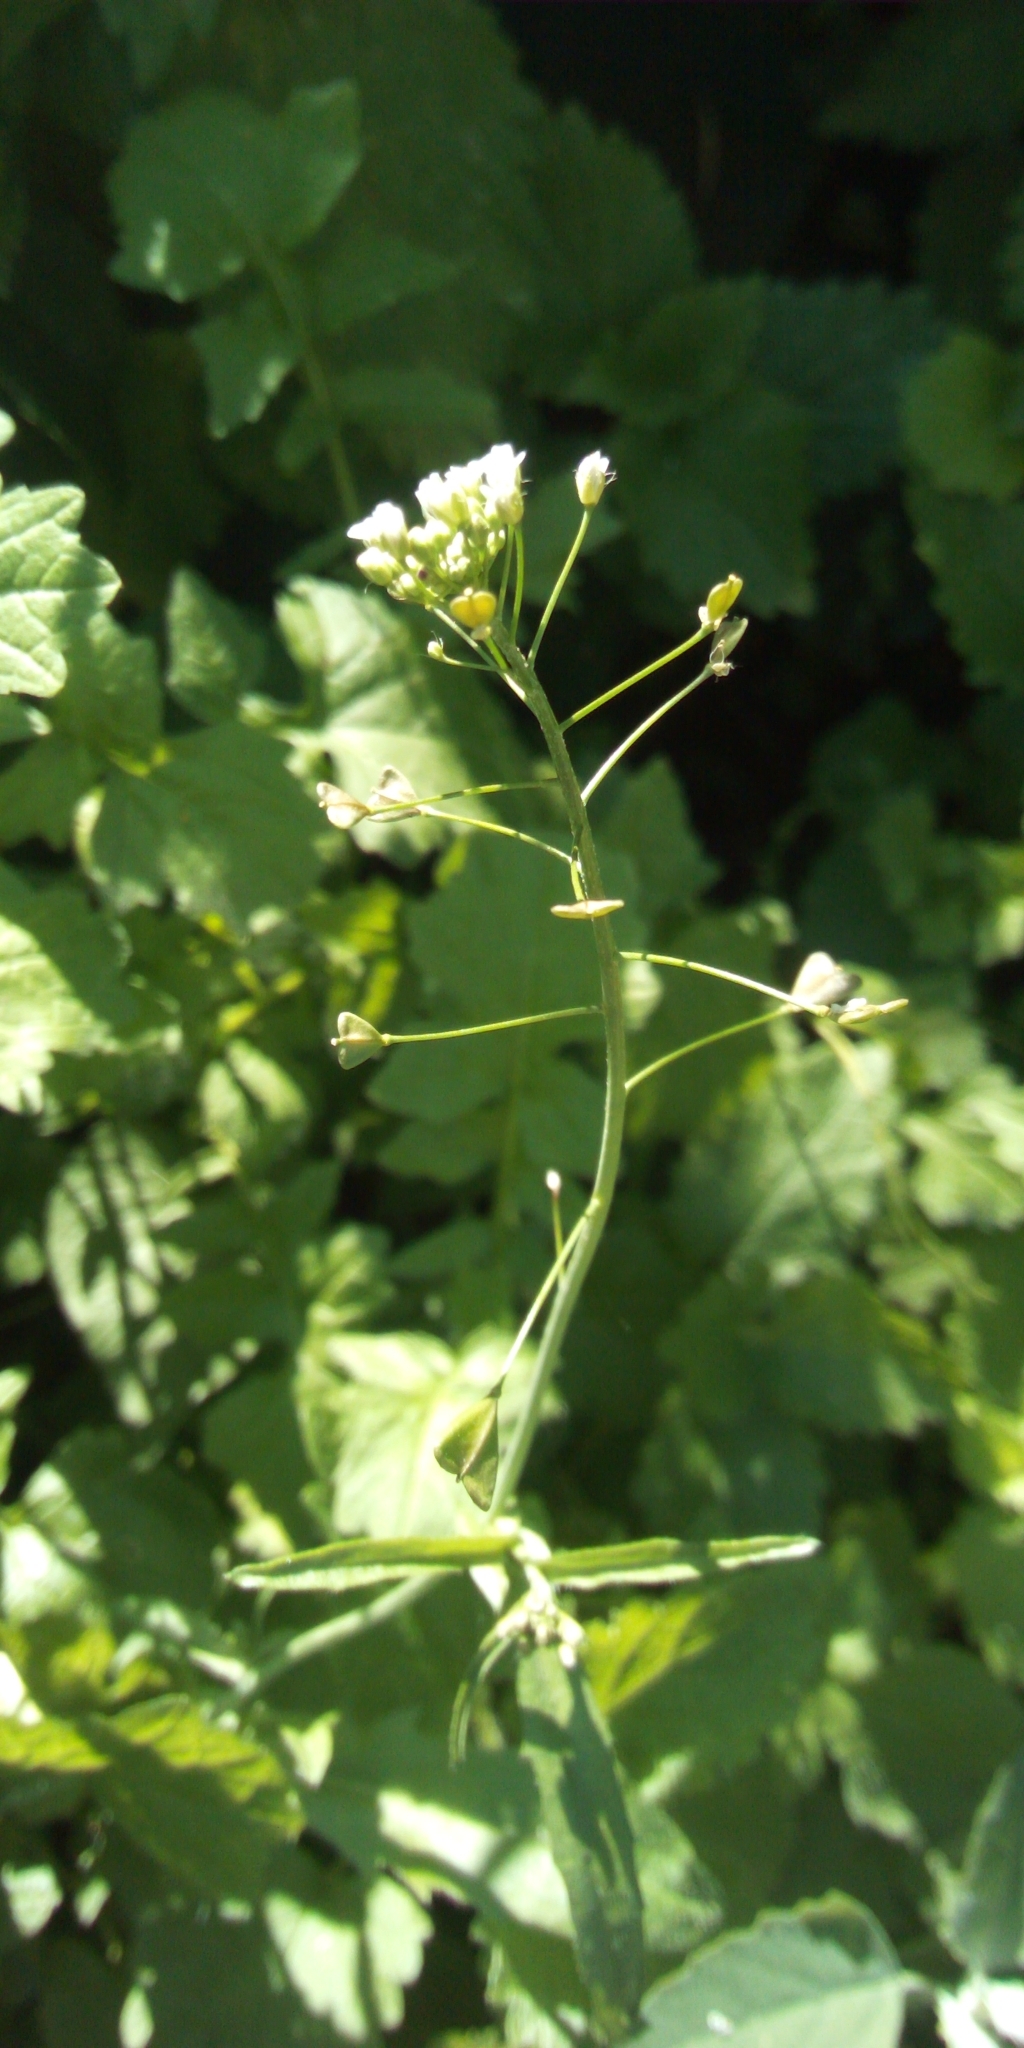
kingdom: Plantae
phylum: Tracheophyta
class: Magnoliopsida
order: Brassicales
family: Brassicaceae
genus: Capsella
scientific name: Capsella bursa-pastoris
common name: Shepherd's purse
